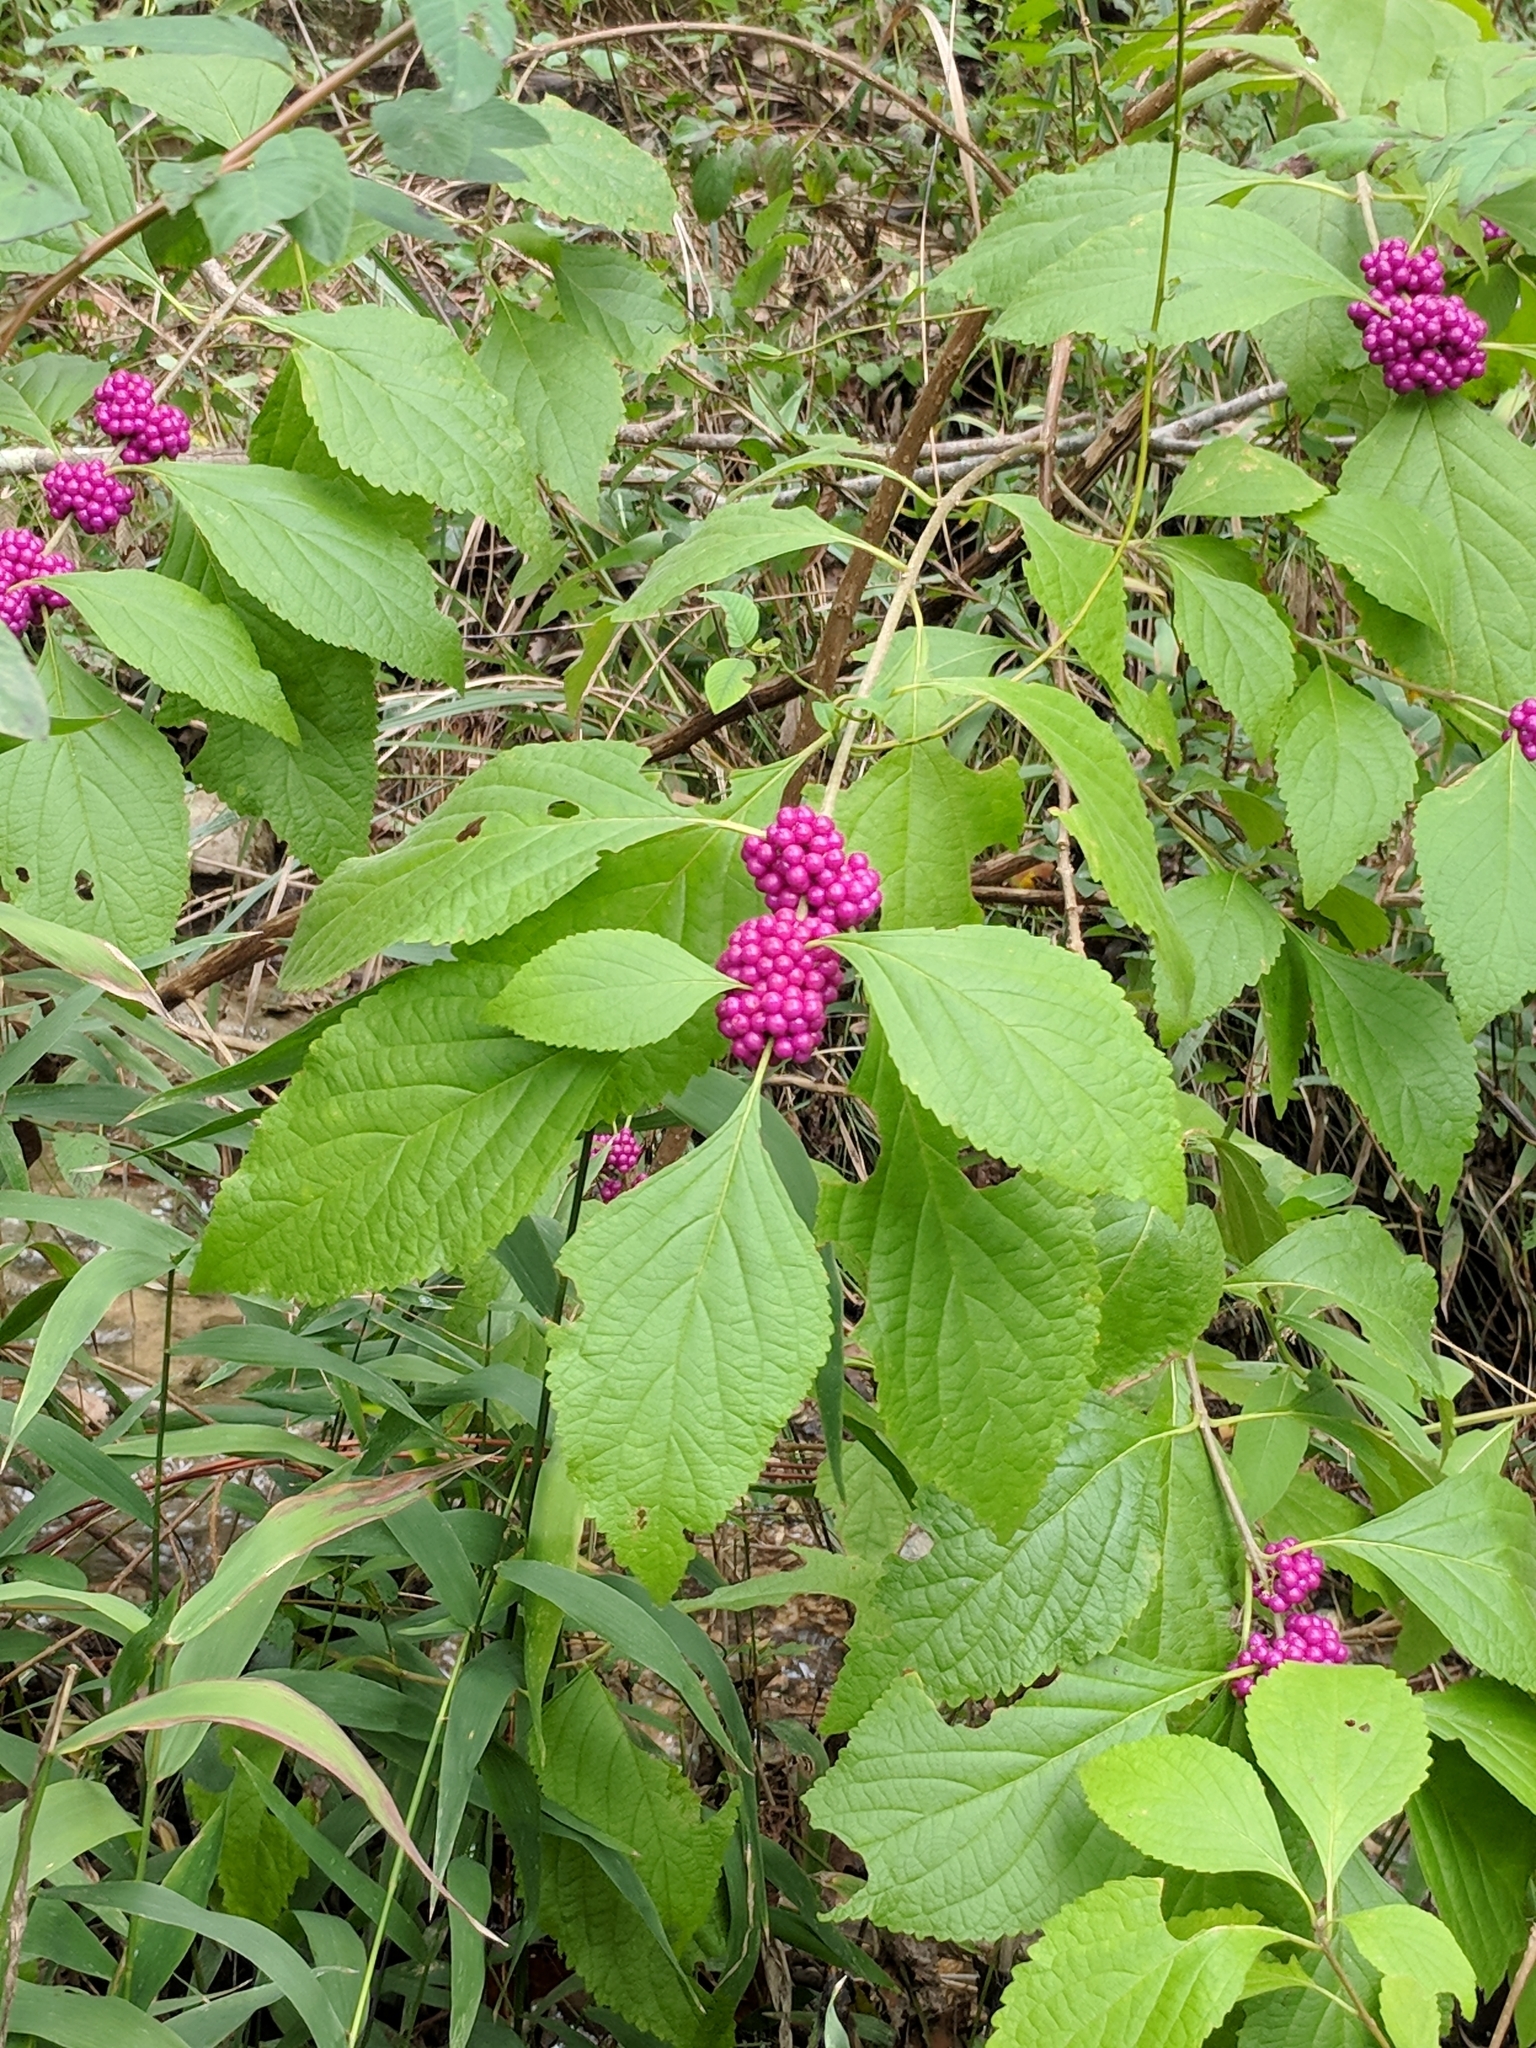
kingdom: Plantae
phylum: Tracheophyta
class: Magnoliopsida
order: Lamiales
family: Lamiaceae
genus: Callicarpa
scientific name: Callicarpa americana
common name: American beautyberry
